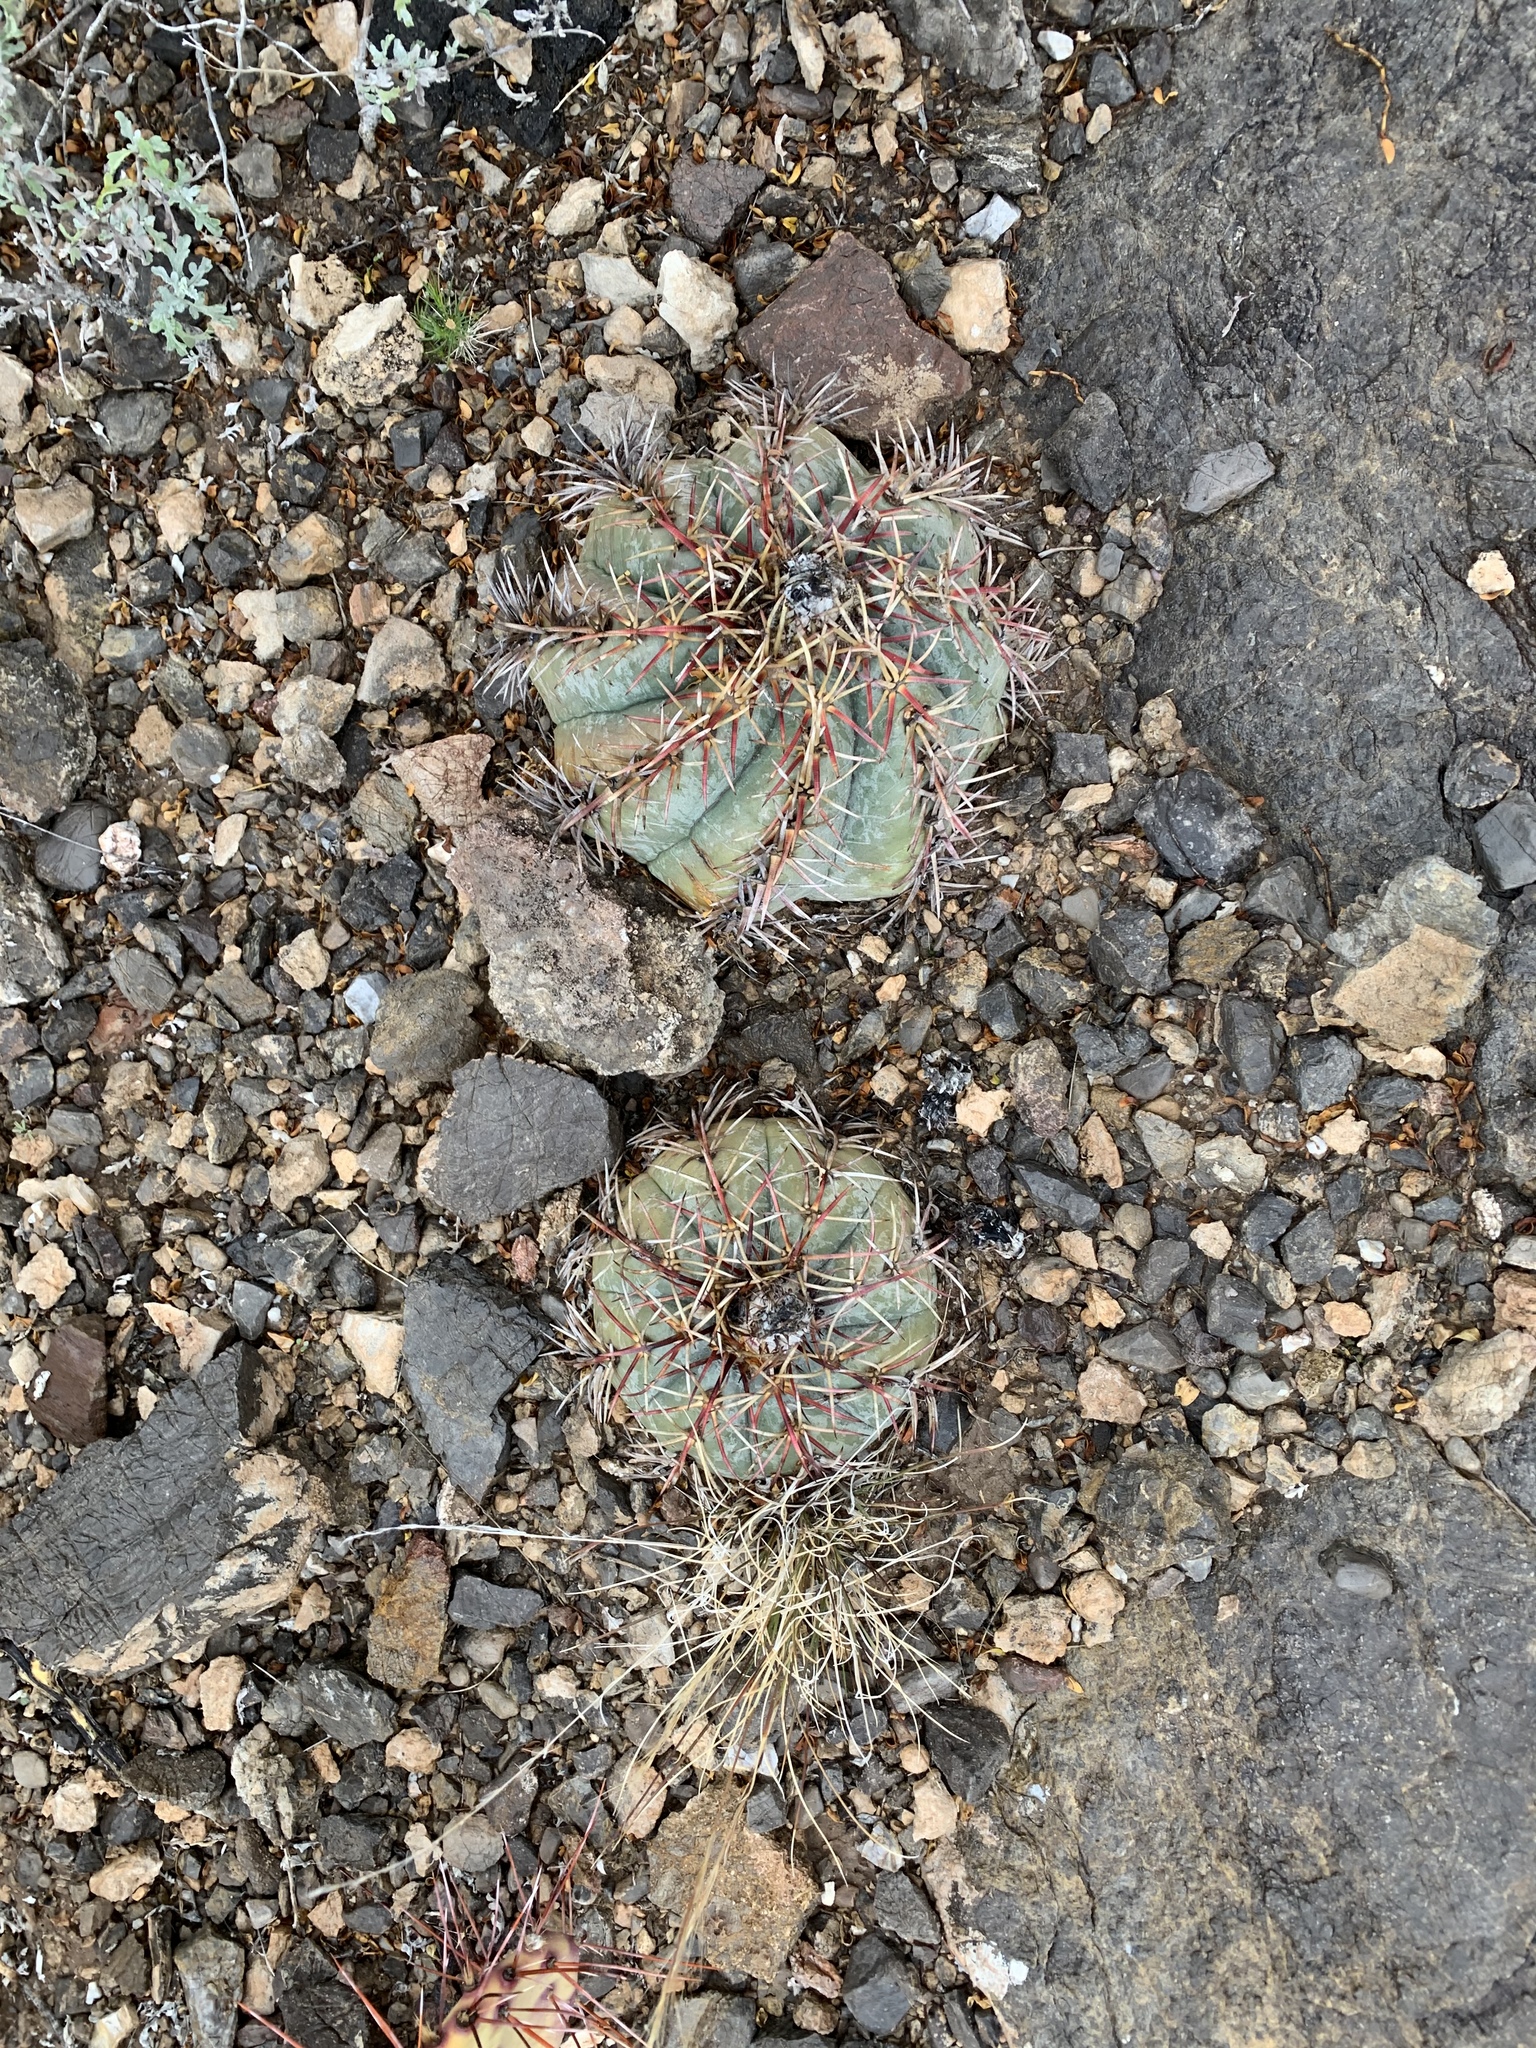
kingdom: Plantae
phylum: Tracheophyta
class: Magnoliopsida
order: Caryophyllales
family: Cactaceae
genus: Echinocactus
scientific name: Echinocactus horizonthalonius
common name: Devilshead
